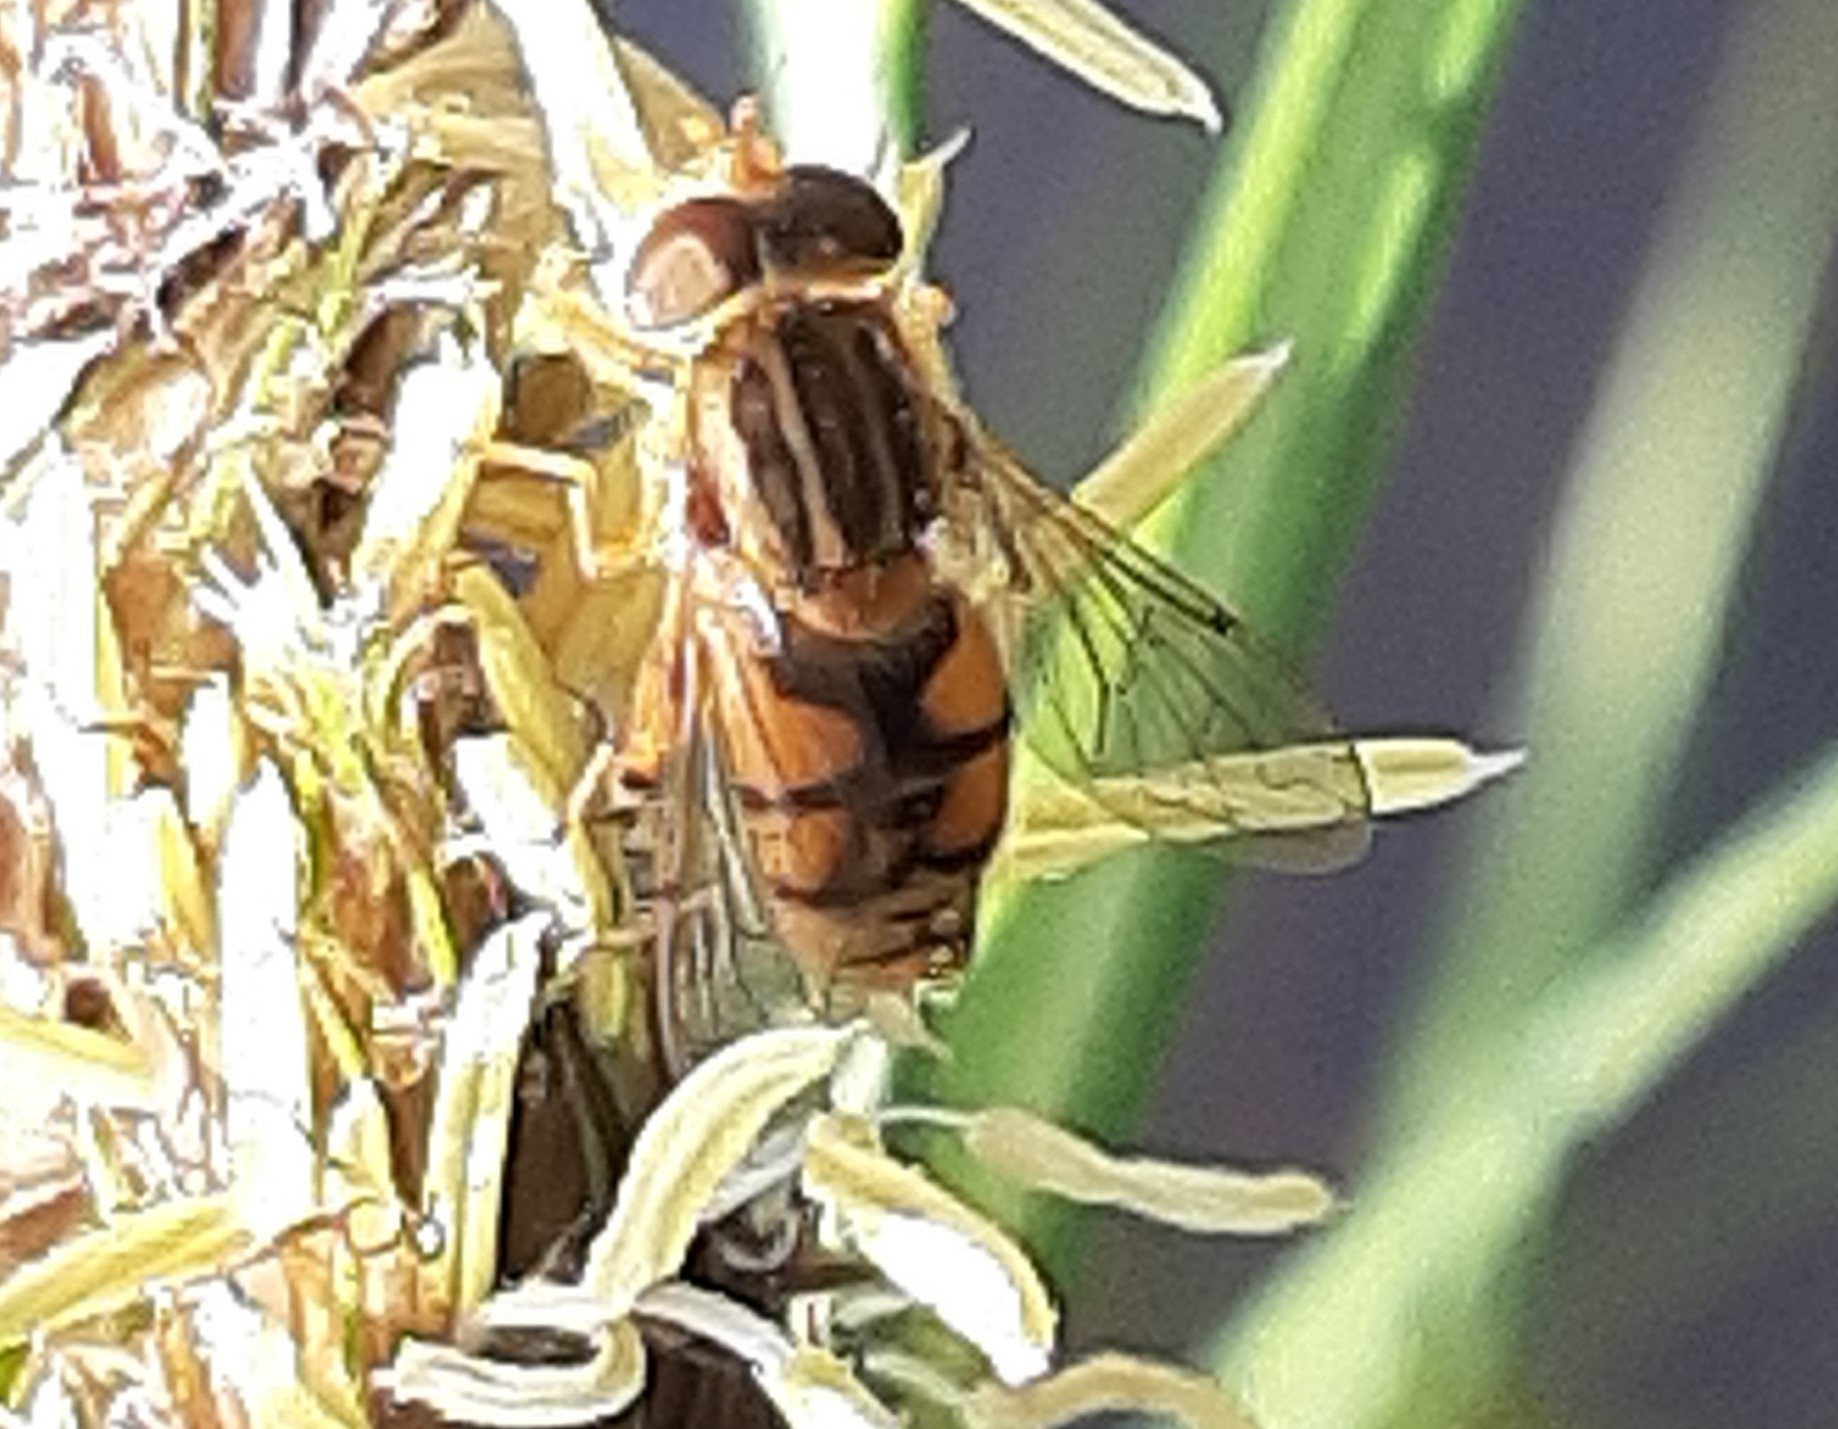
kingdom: Animalia
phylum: Arthropoda
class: Insecta
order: Diptera
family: Syrphidae
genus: Parhelophilus
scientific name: Parhelophilus laetus
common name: Common bog fly
